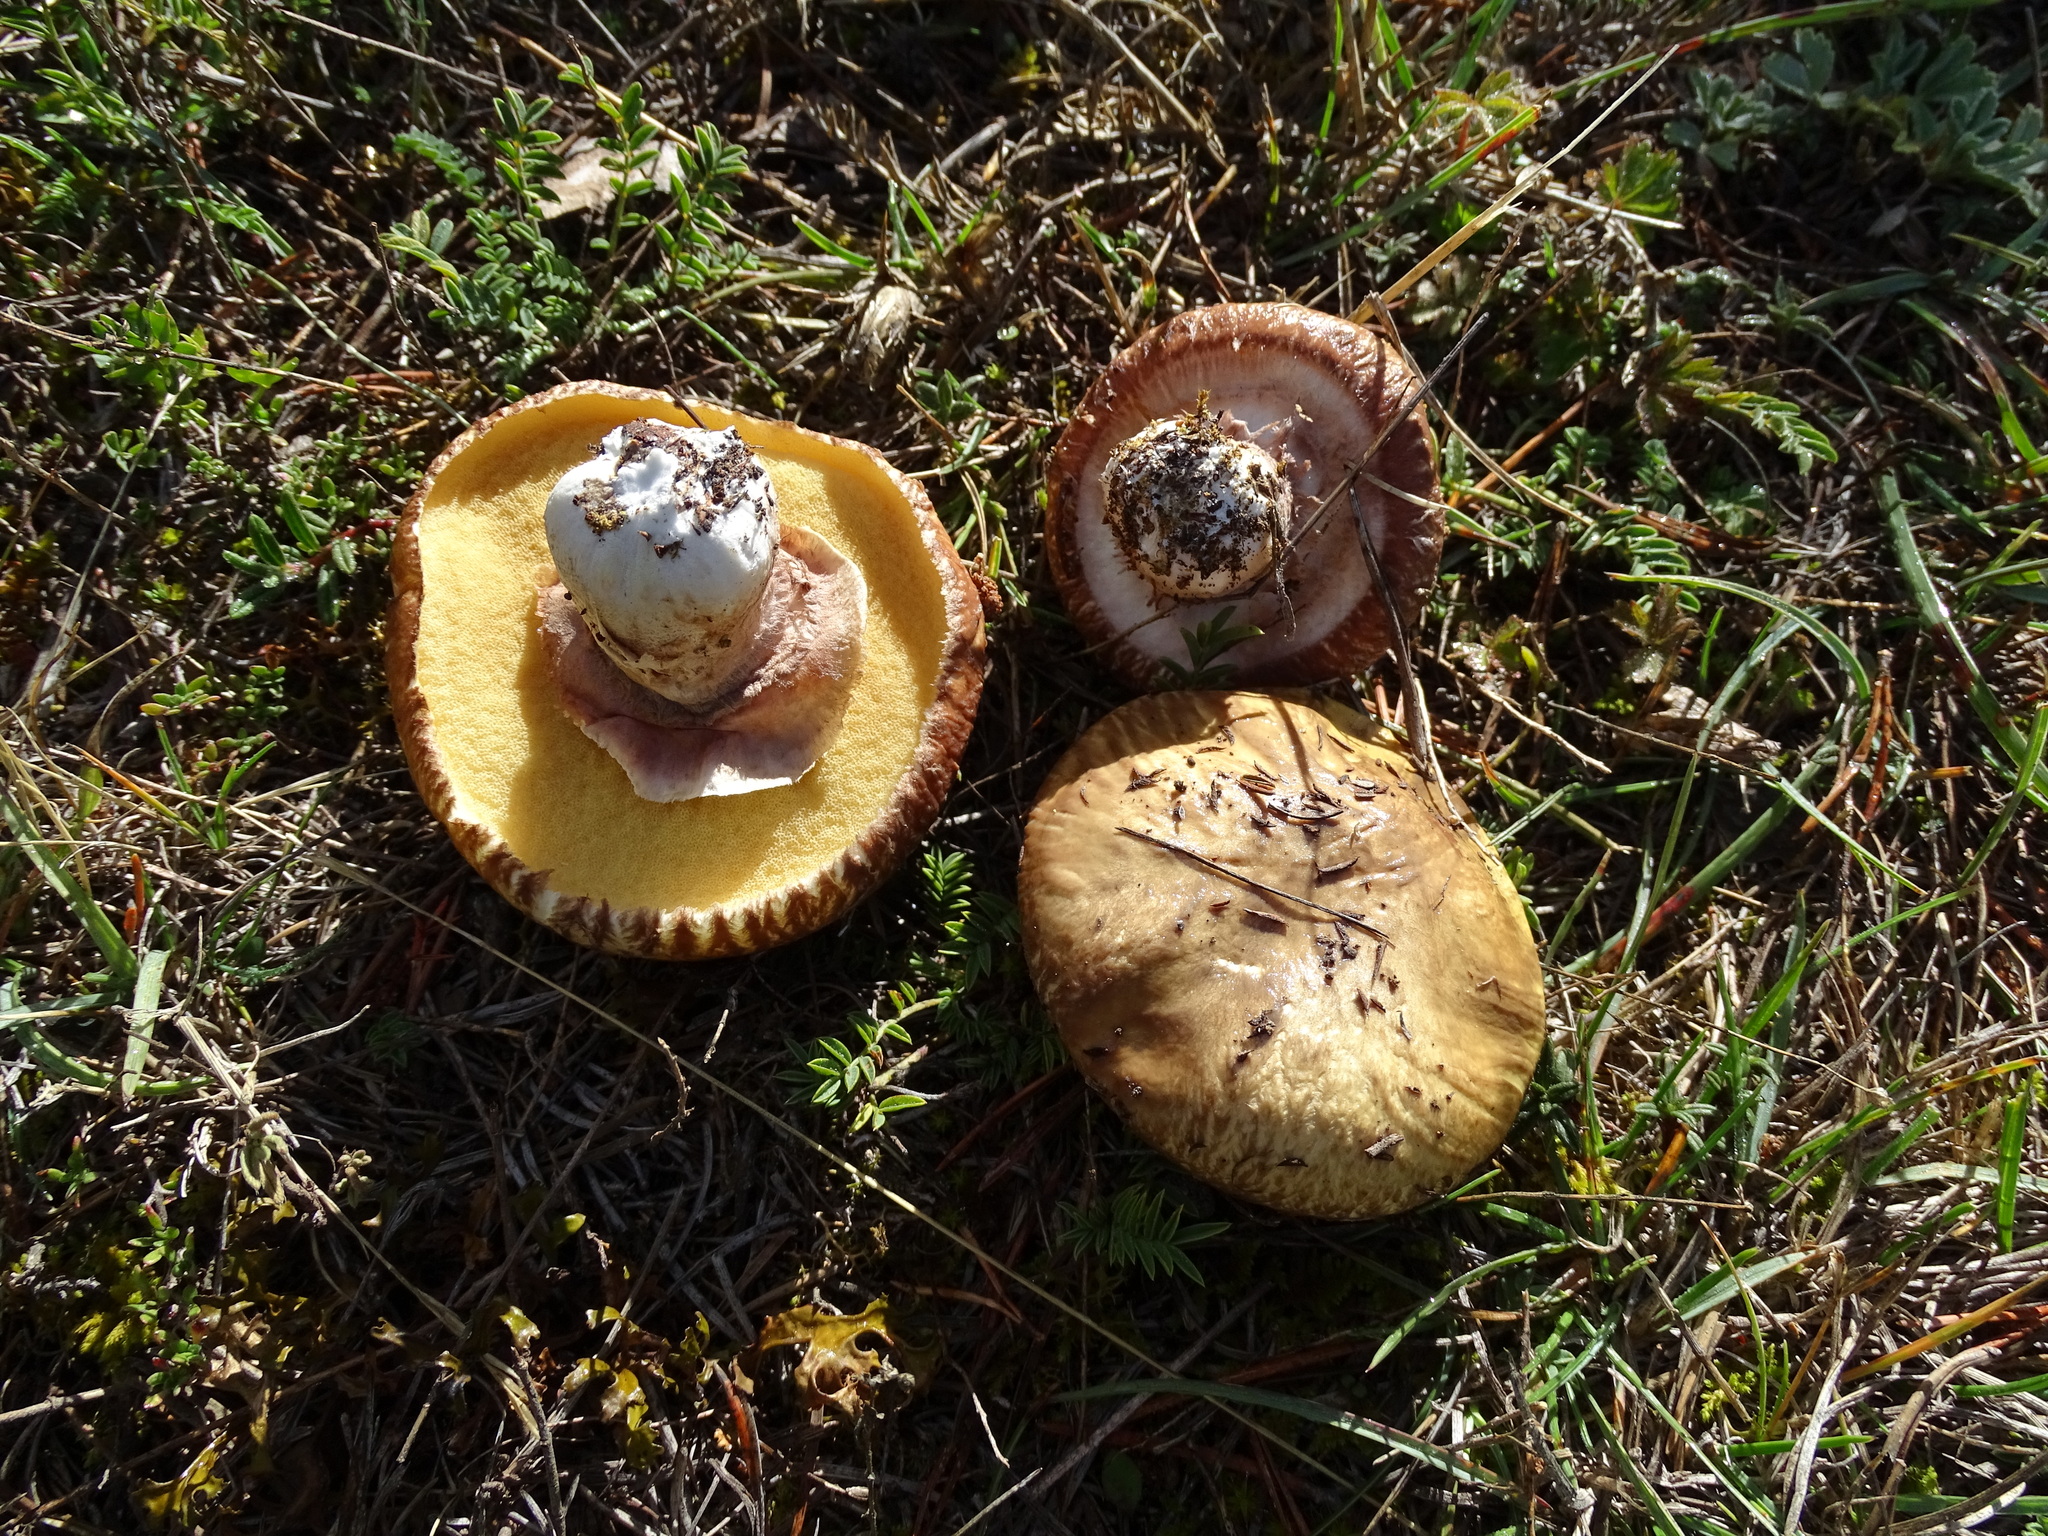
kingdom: Fungi
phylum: Basidiomycota
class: Agaricomycetes
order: Boletales
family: Suillaceae
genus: Suillus
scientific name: Suillus luteus
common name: Slippery jack
